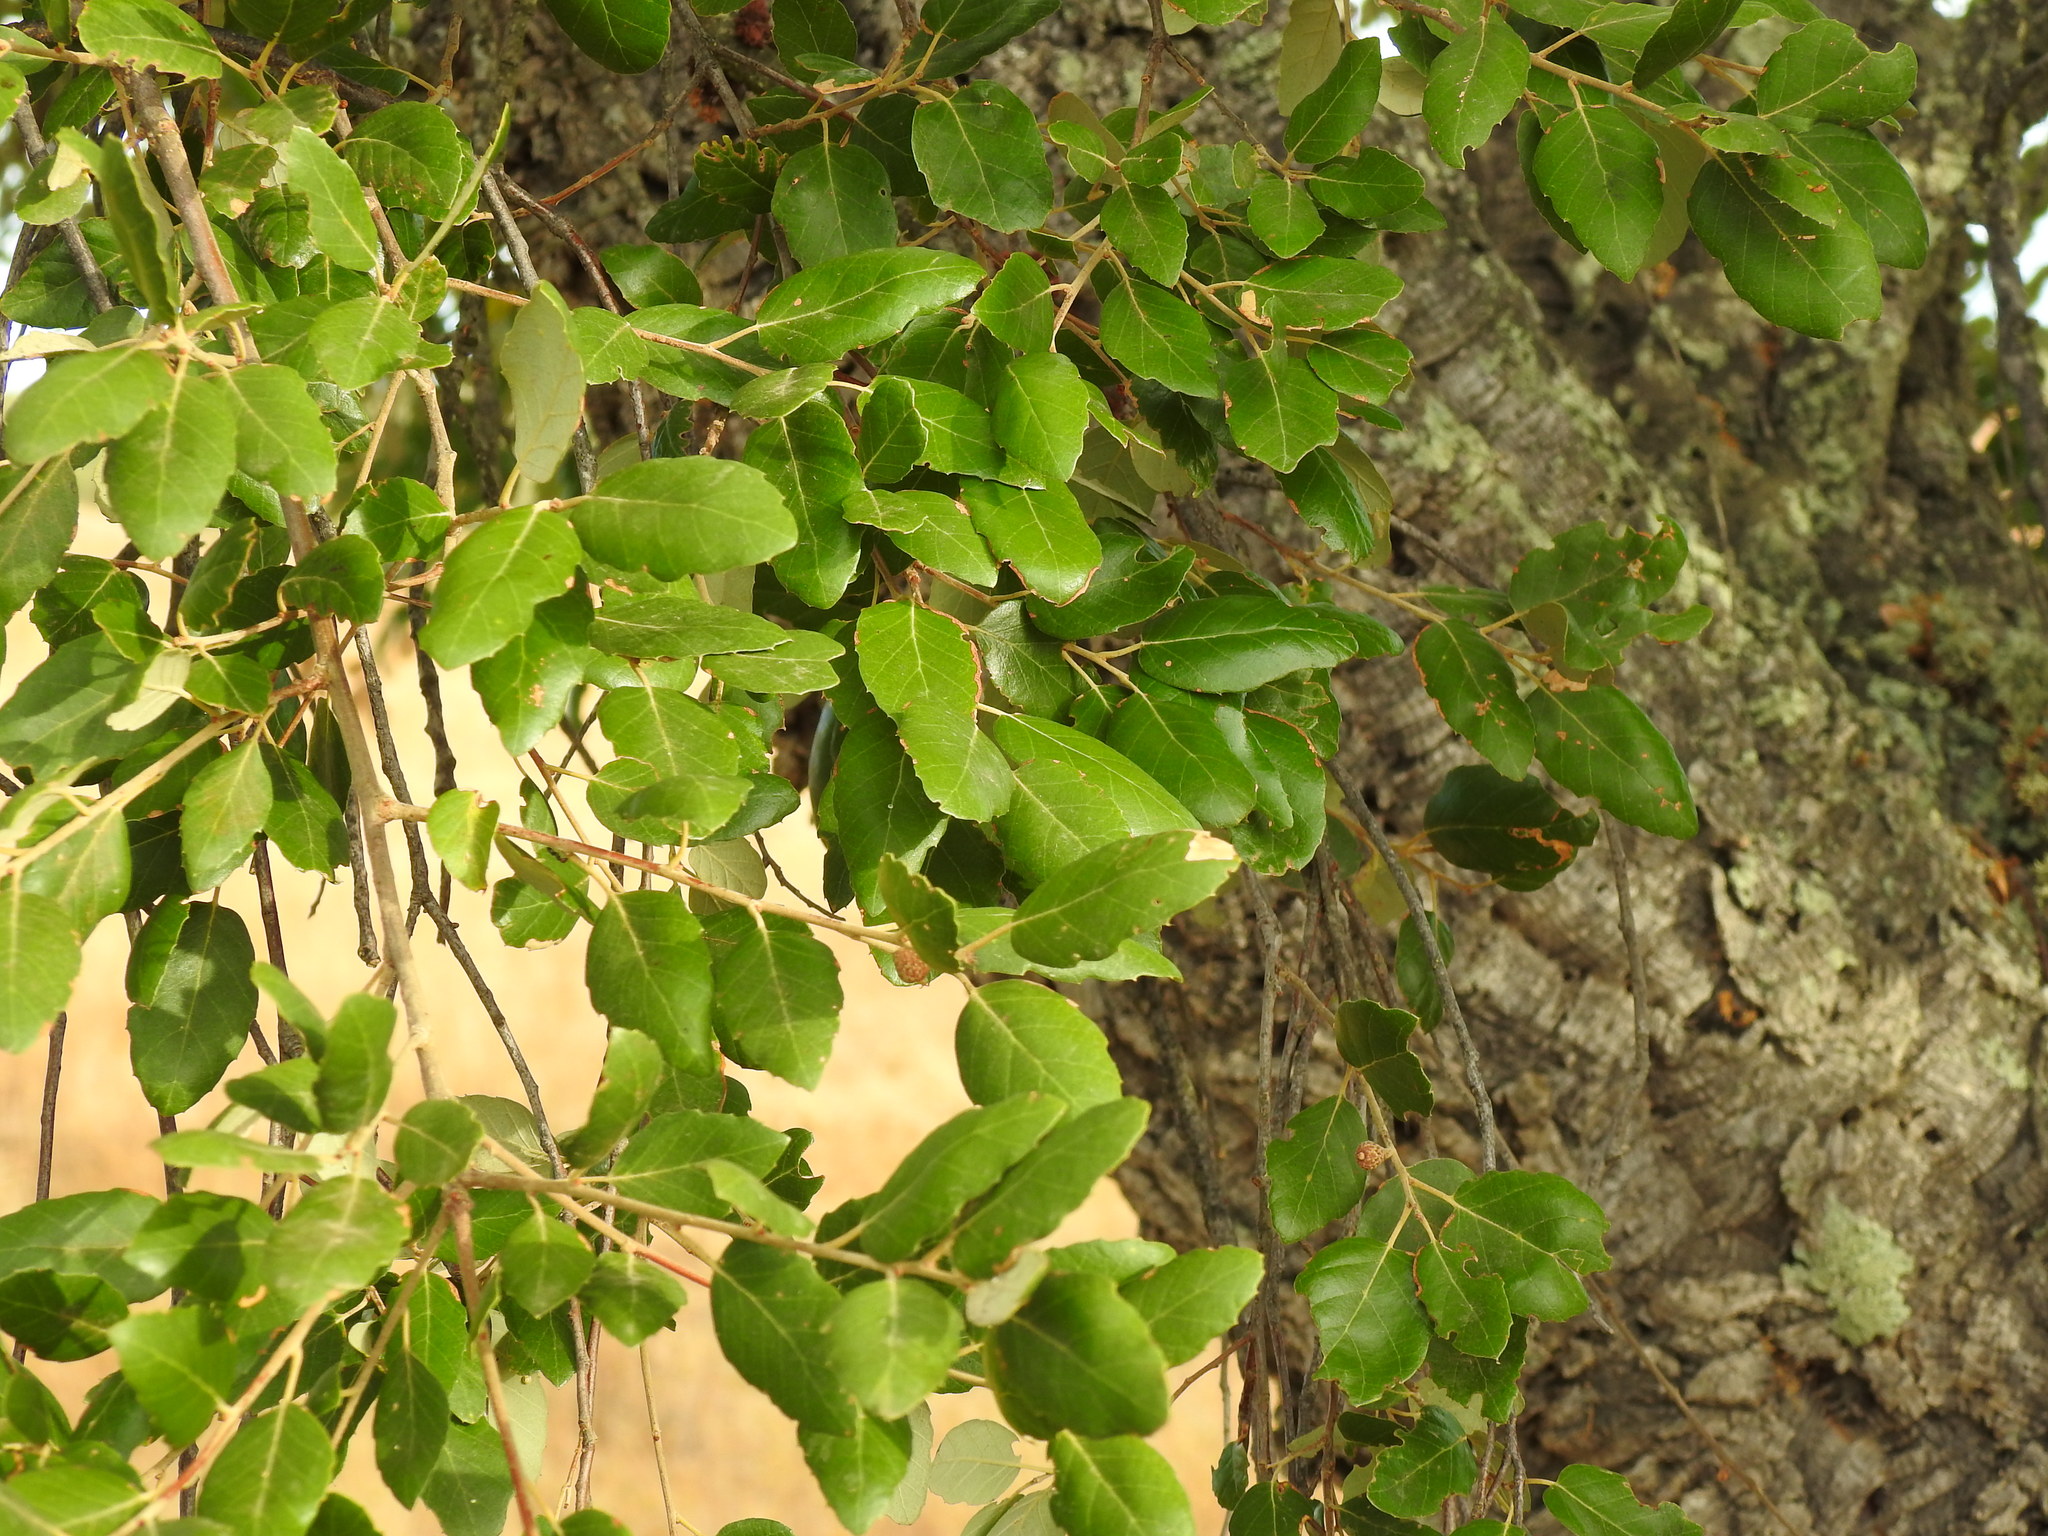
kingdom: Plantae
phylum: Tracheophyta
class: Magnoliopsida
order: Fagales
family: Fagaceae
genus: Quercus
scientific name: Quercus suber
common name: Cork oak
